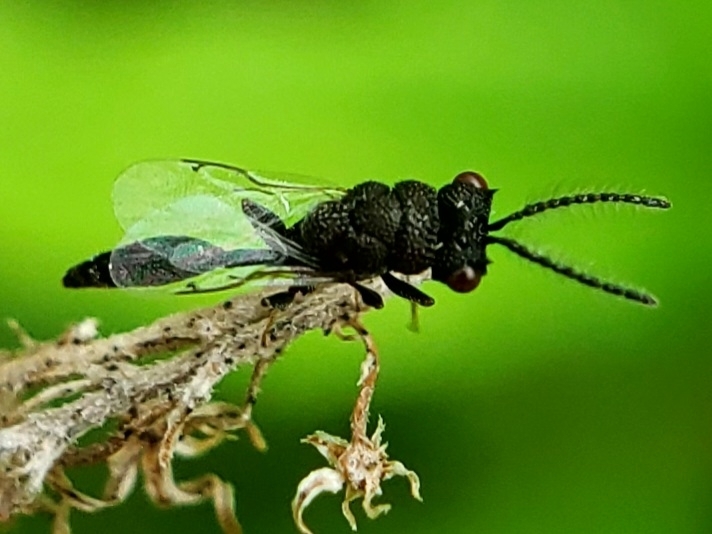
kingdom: Animalia
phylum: Arthropoda
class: Insecta
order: Hymenoptera
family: Eurytomidae
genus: Axima
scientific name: Axima zabriskiei
